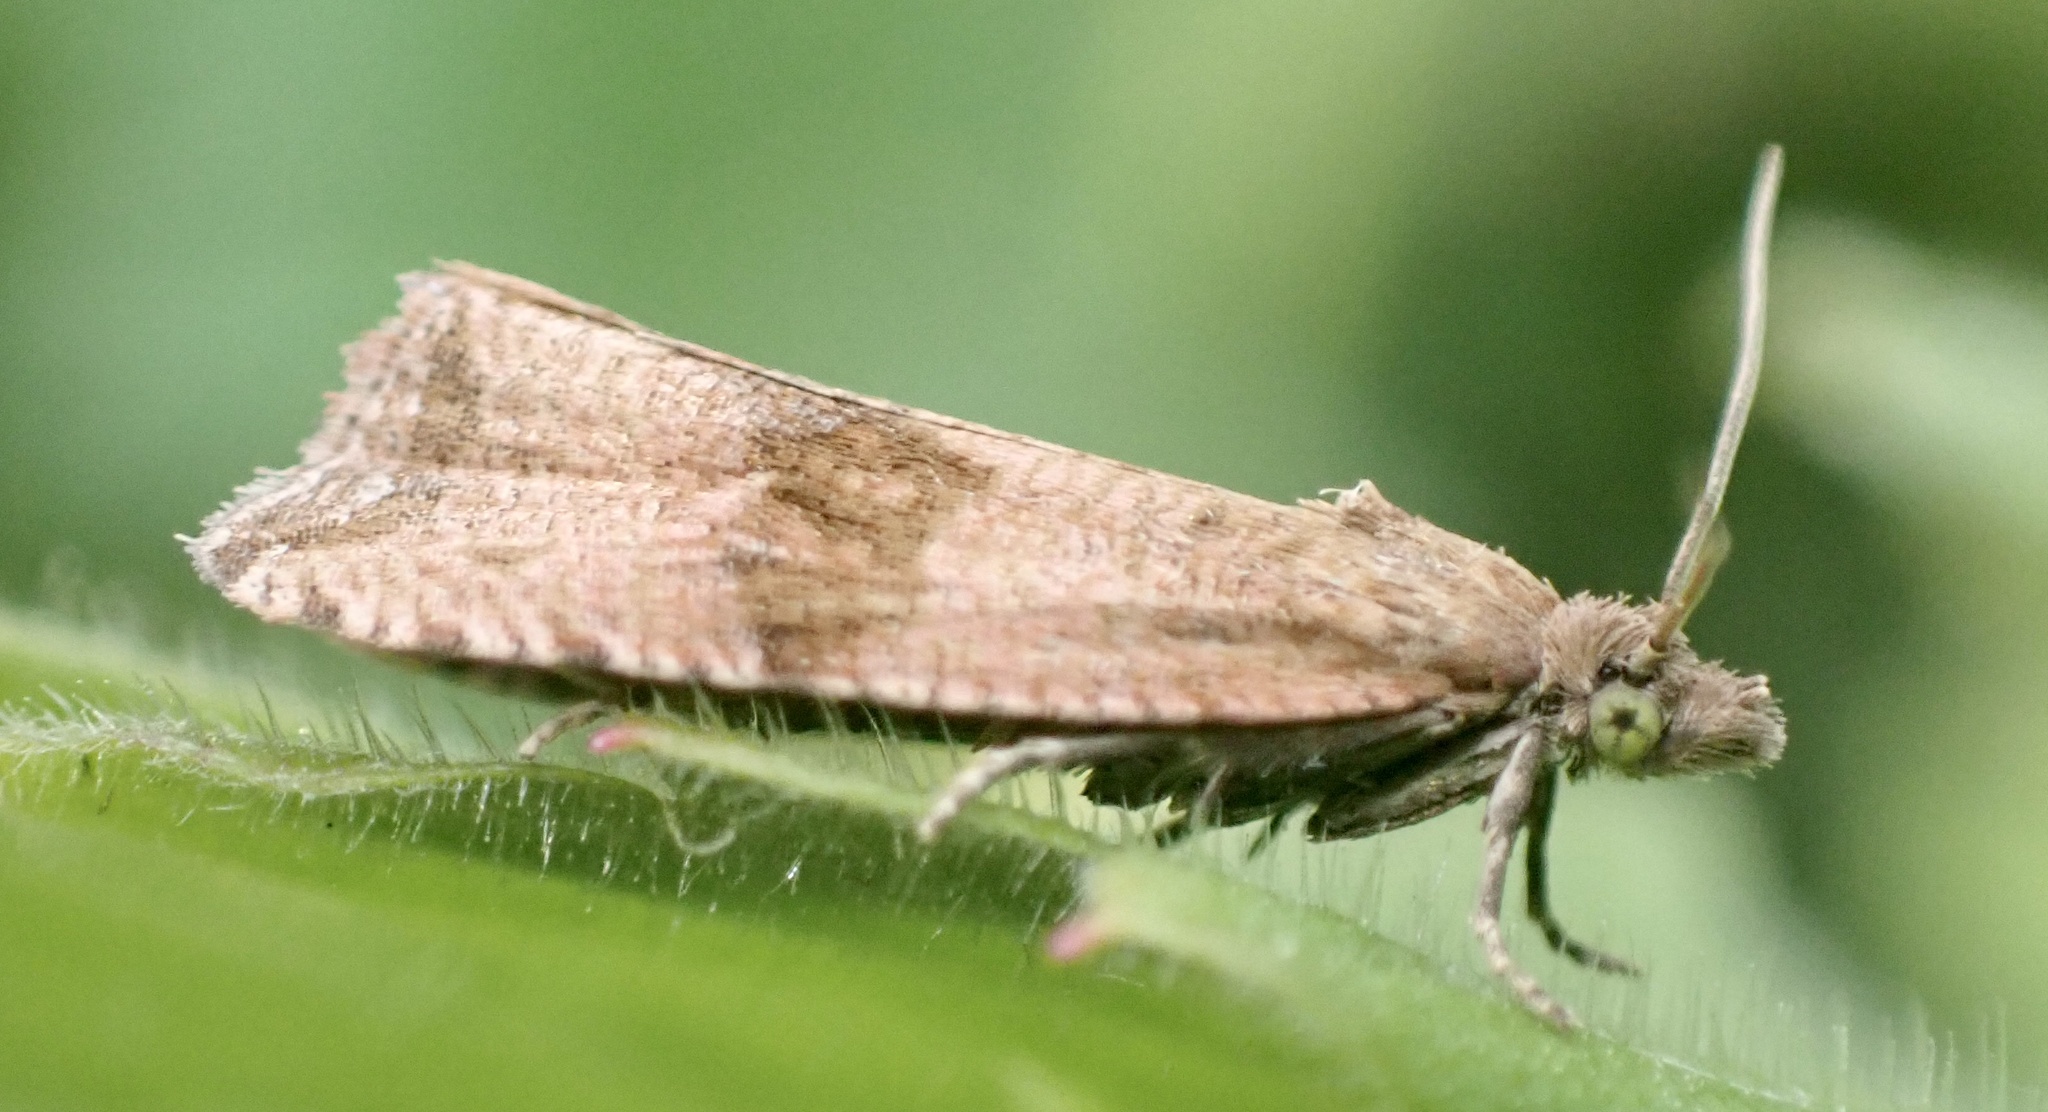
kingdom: Animalia
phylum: Arthropoda
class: Insecta
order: Lepidoptera
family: Tortricidae
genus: Celypha
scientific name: Celypha striana
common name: Barred marble
